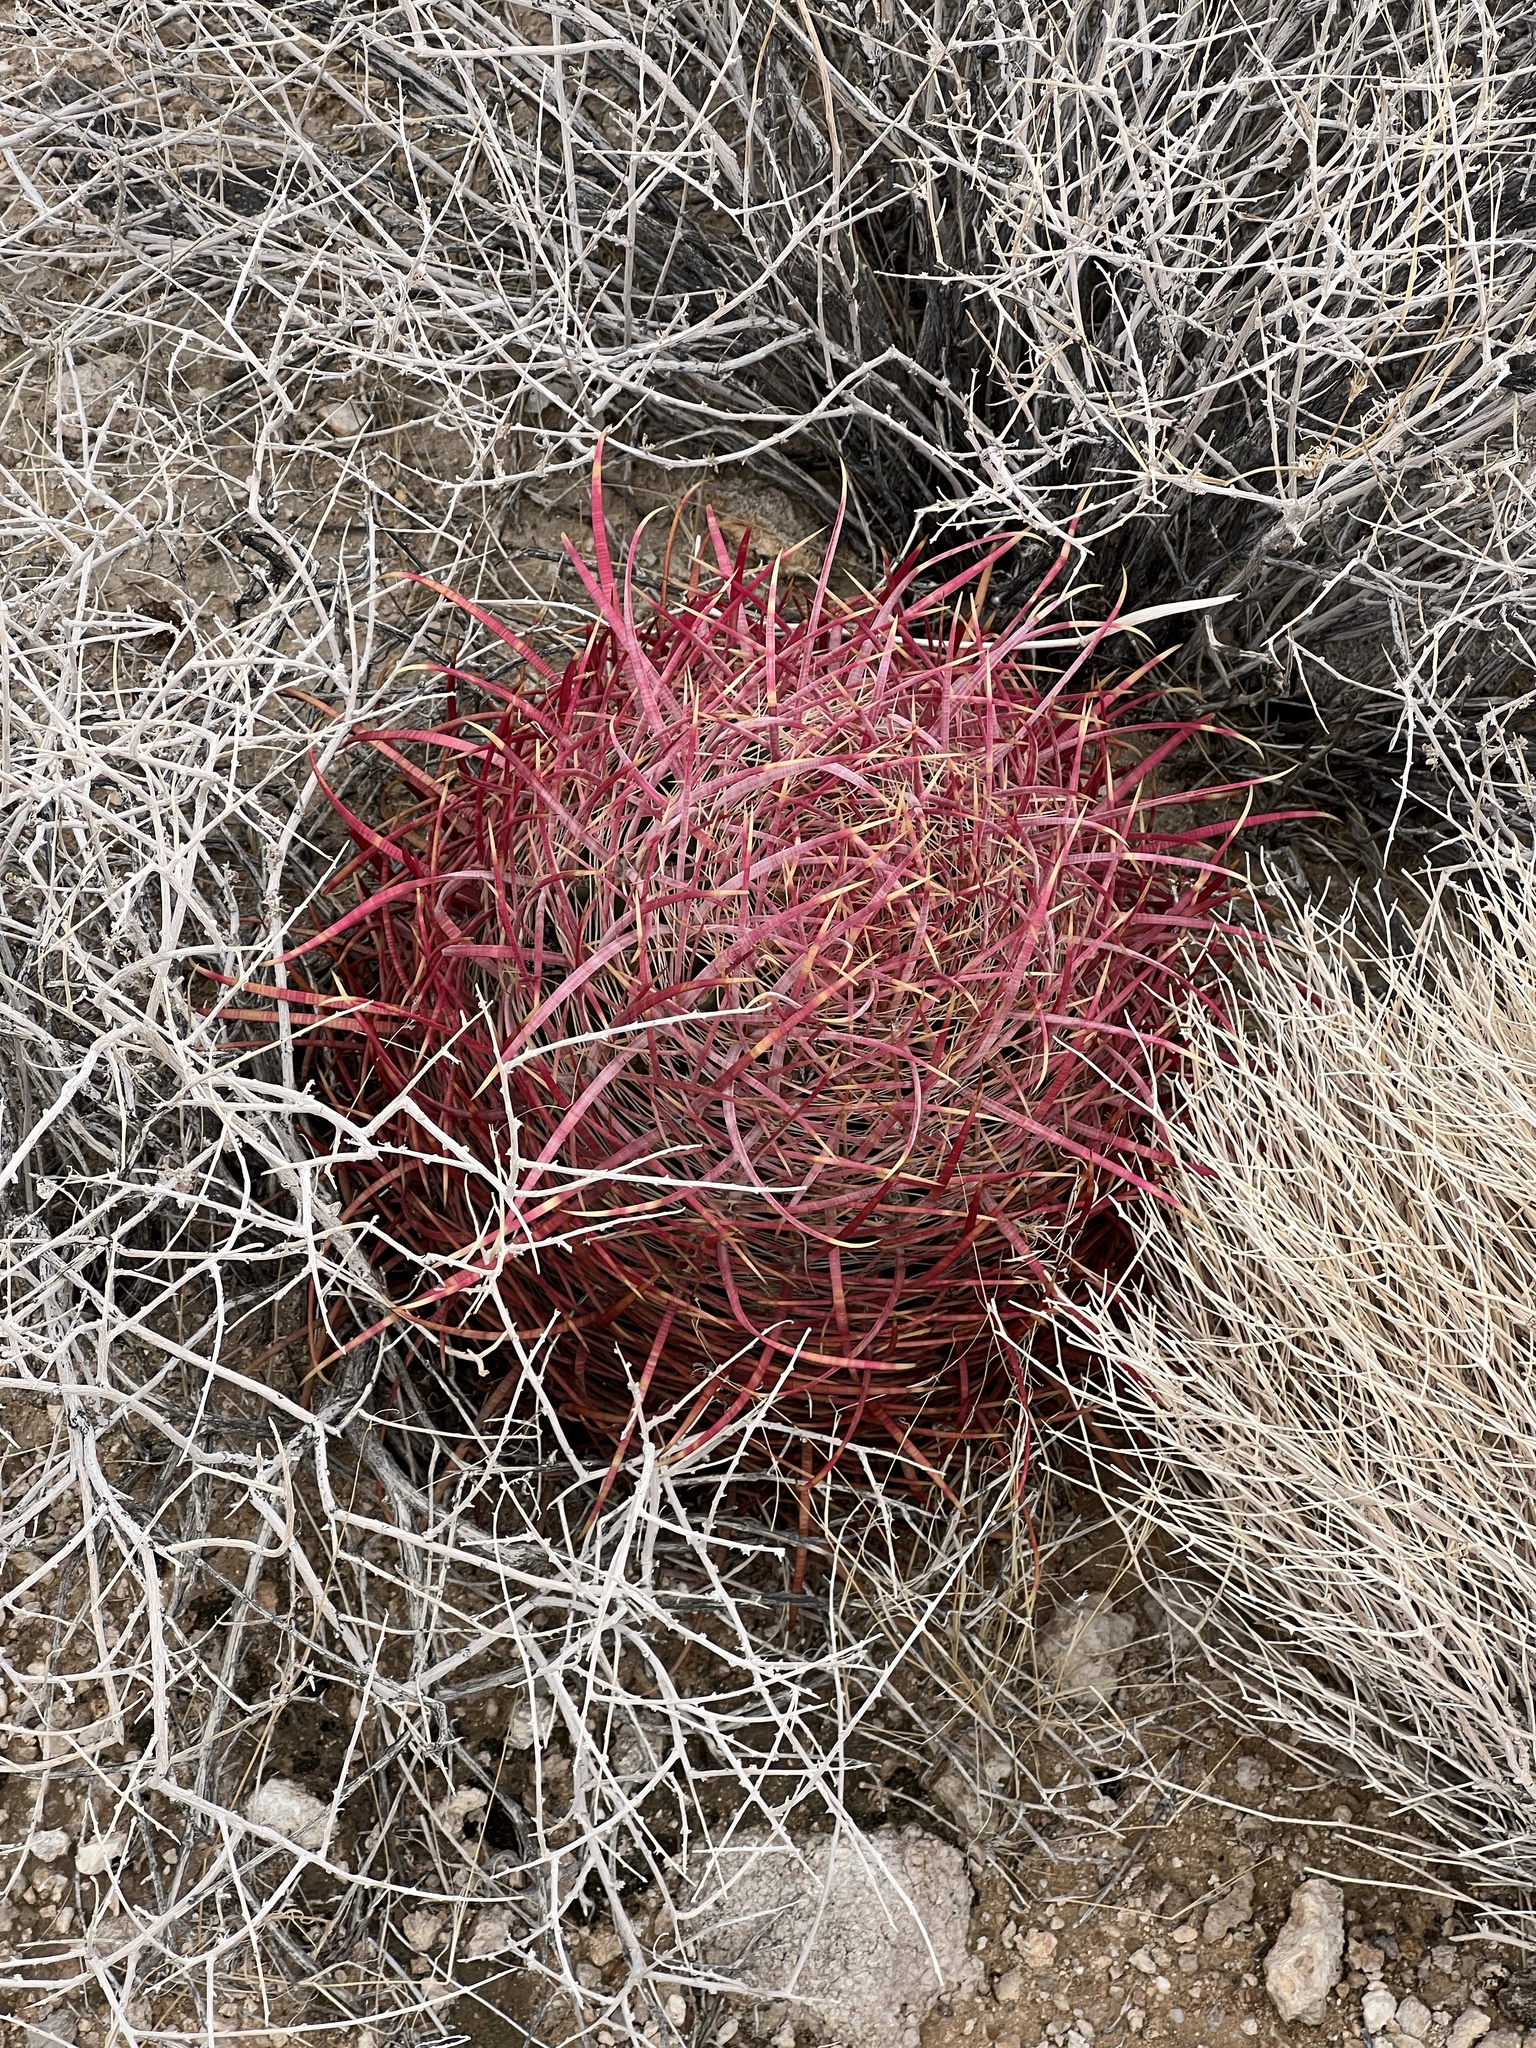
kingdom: Plantae
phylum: Tracheophyta
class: Magnoliopsida
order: Caryophyllales
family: Cactaceae
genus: Ferocactus
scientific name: Ferocactus cylindraceus
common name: California barrel cactus
